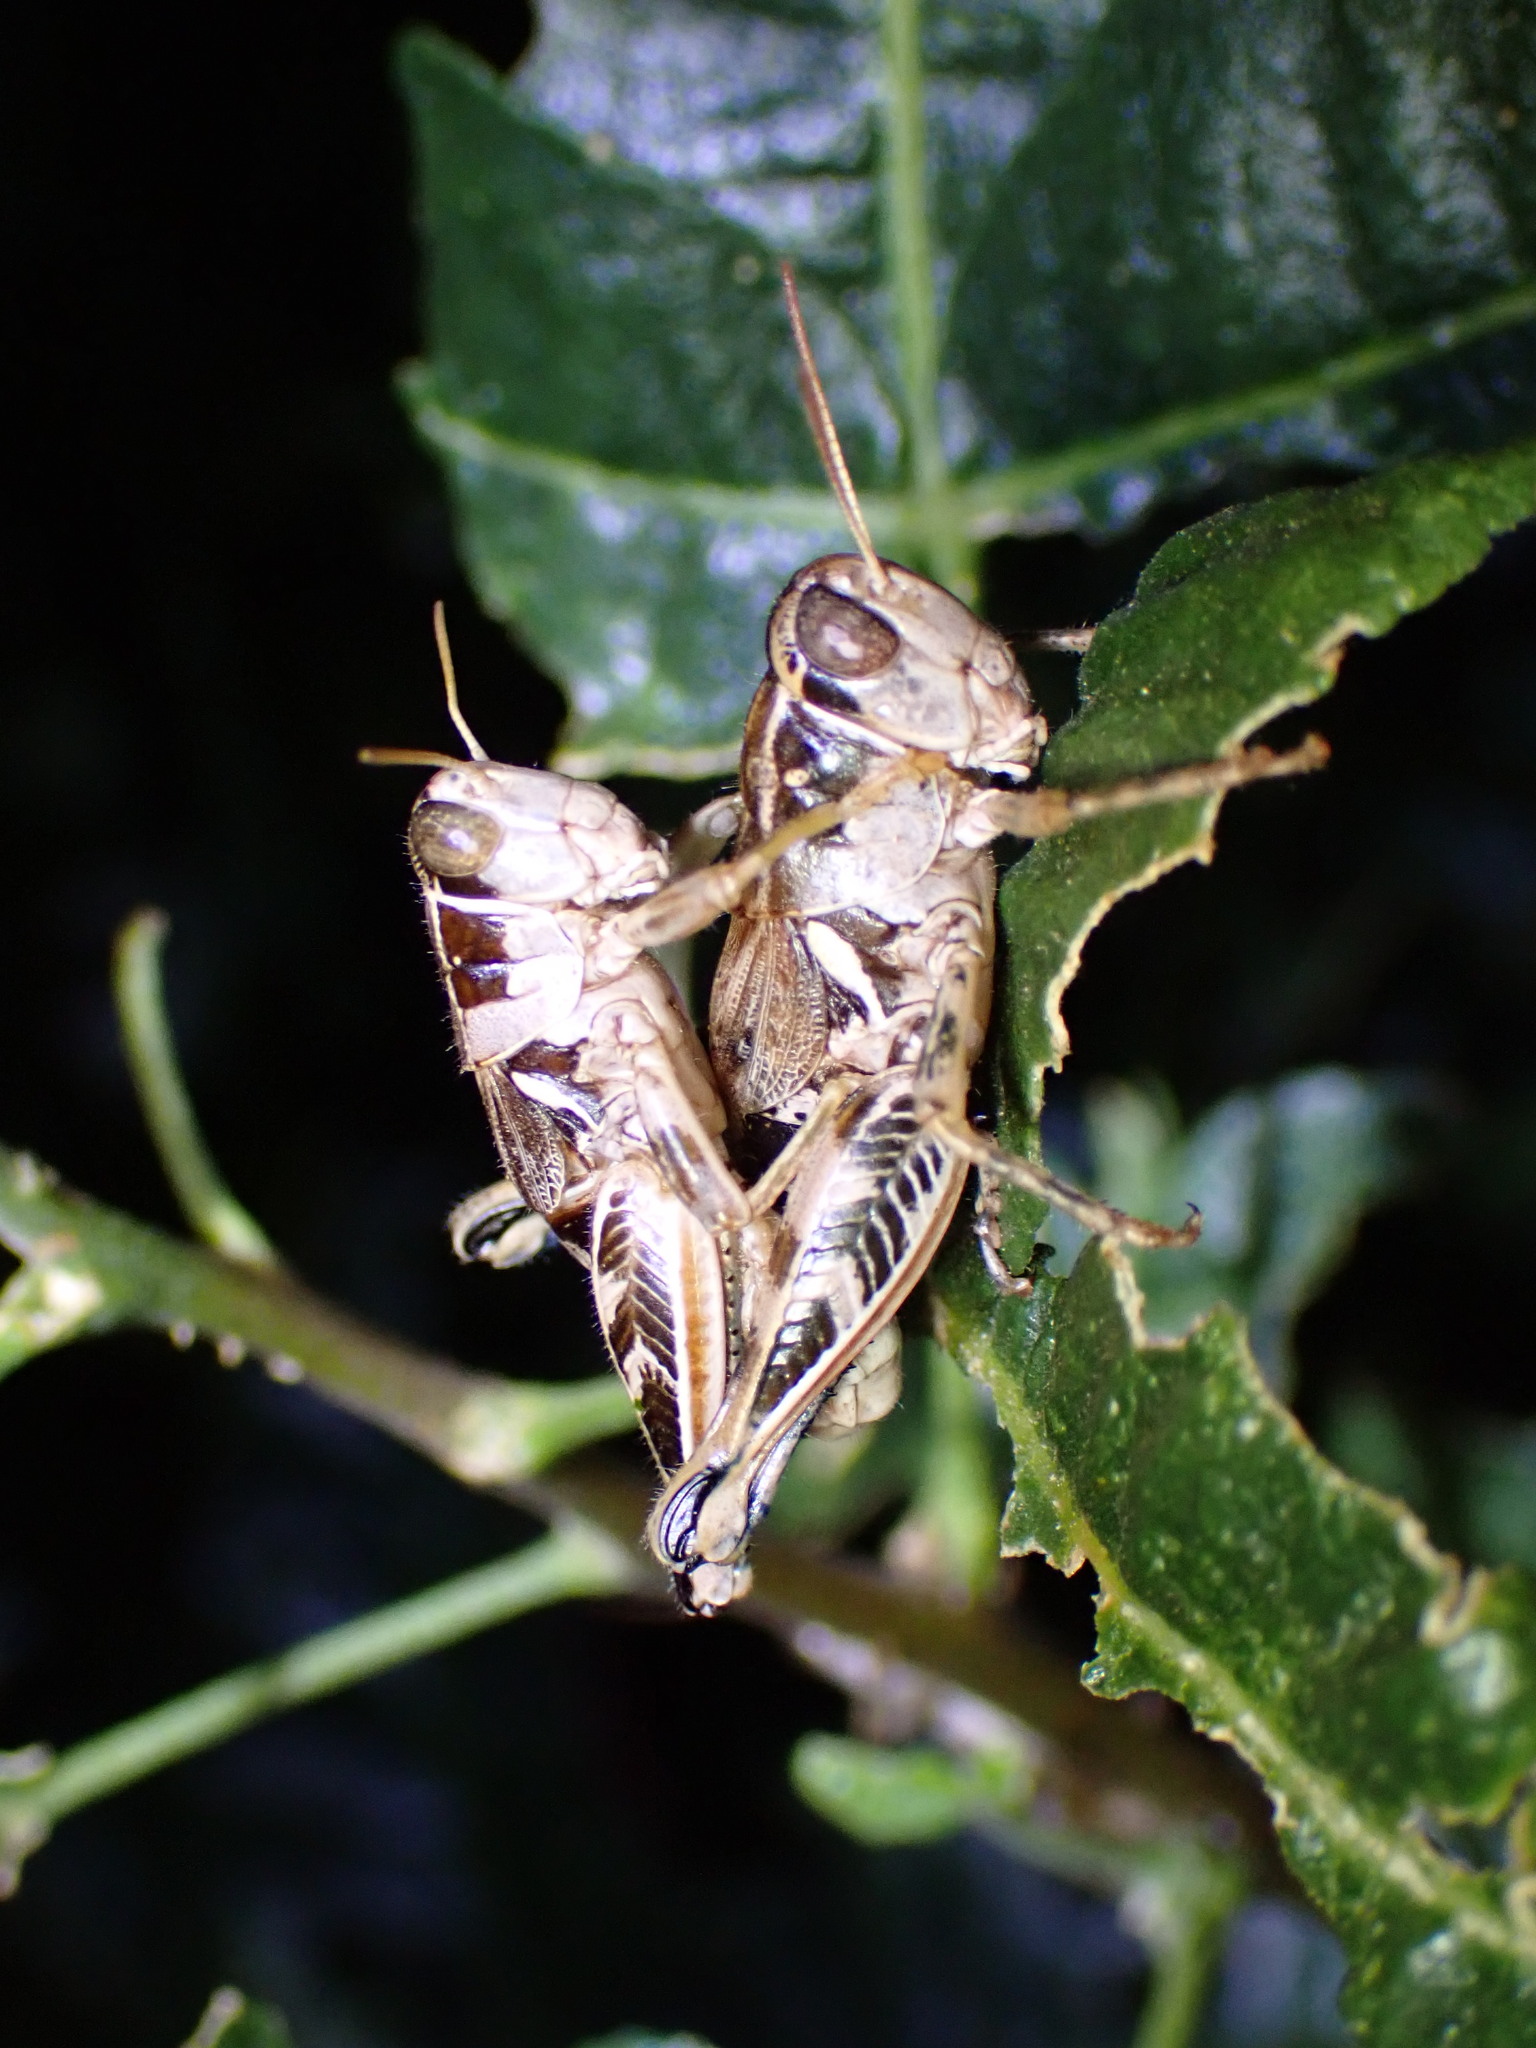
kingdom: Animalia
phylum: Arthropoda
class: Insecta
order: Orthoptera
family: Acrididae
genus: Oedaleonotus
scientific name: Oedaleonotus enigma
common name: Valley grasshopper
